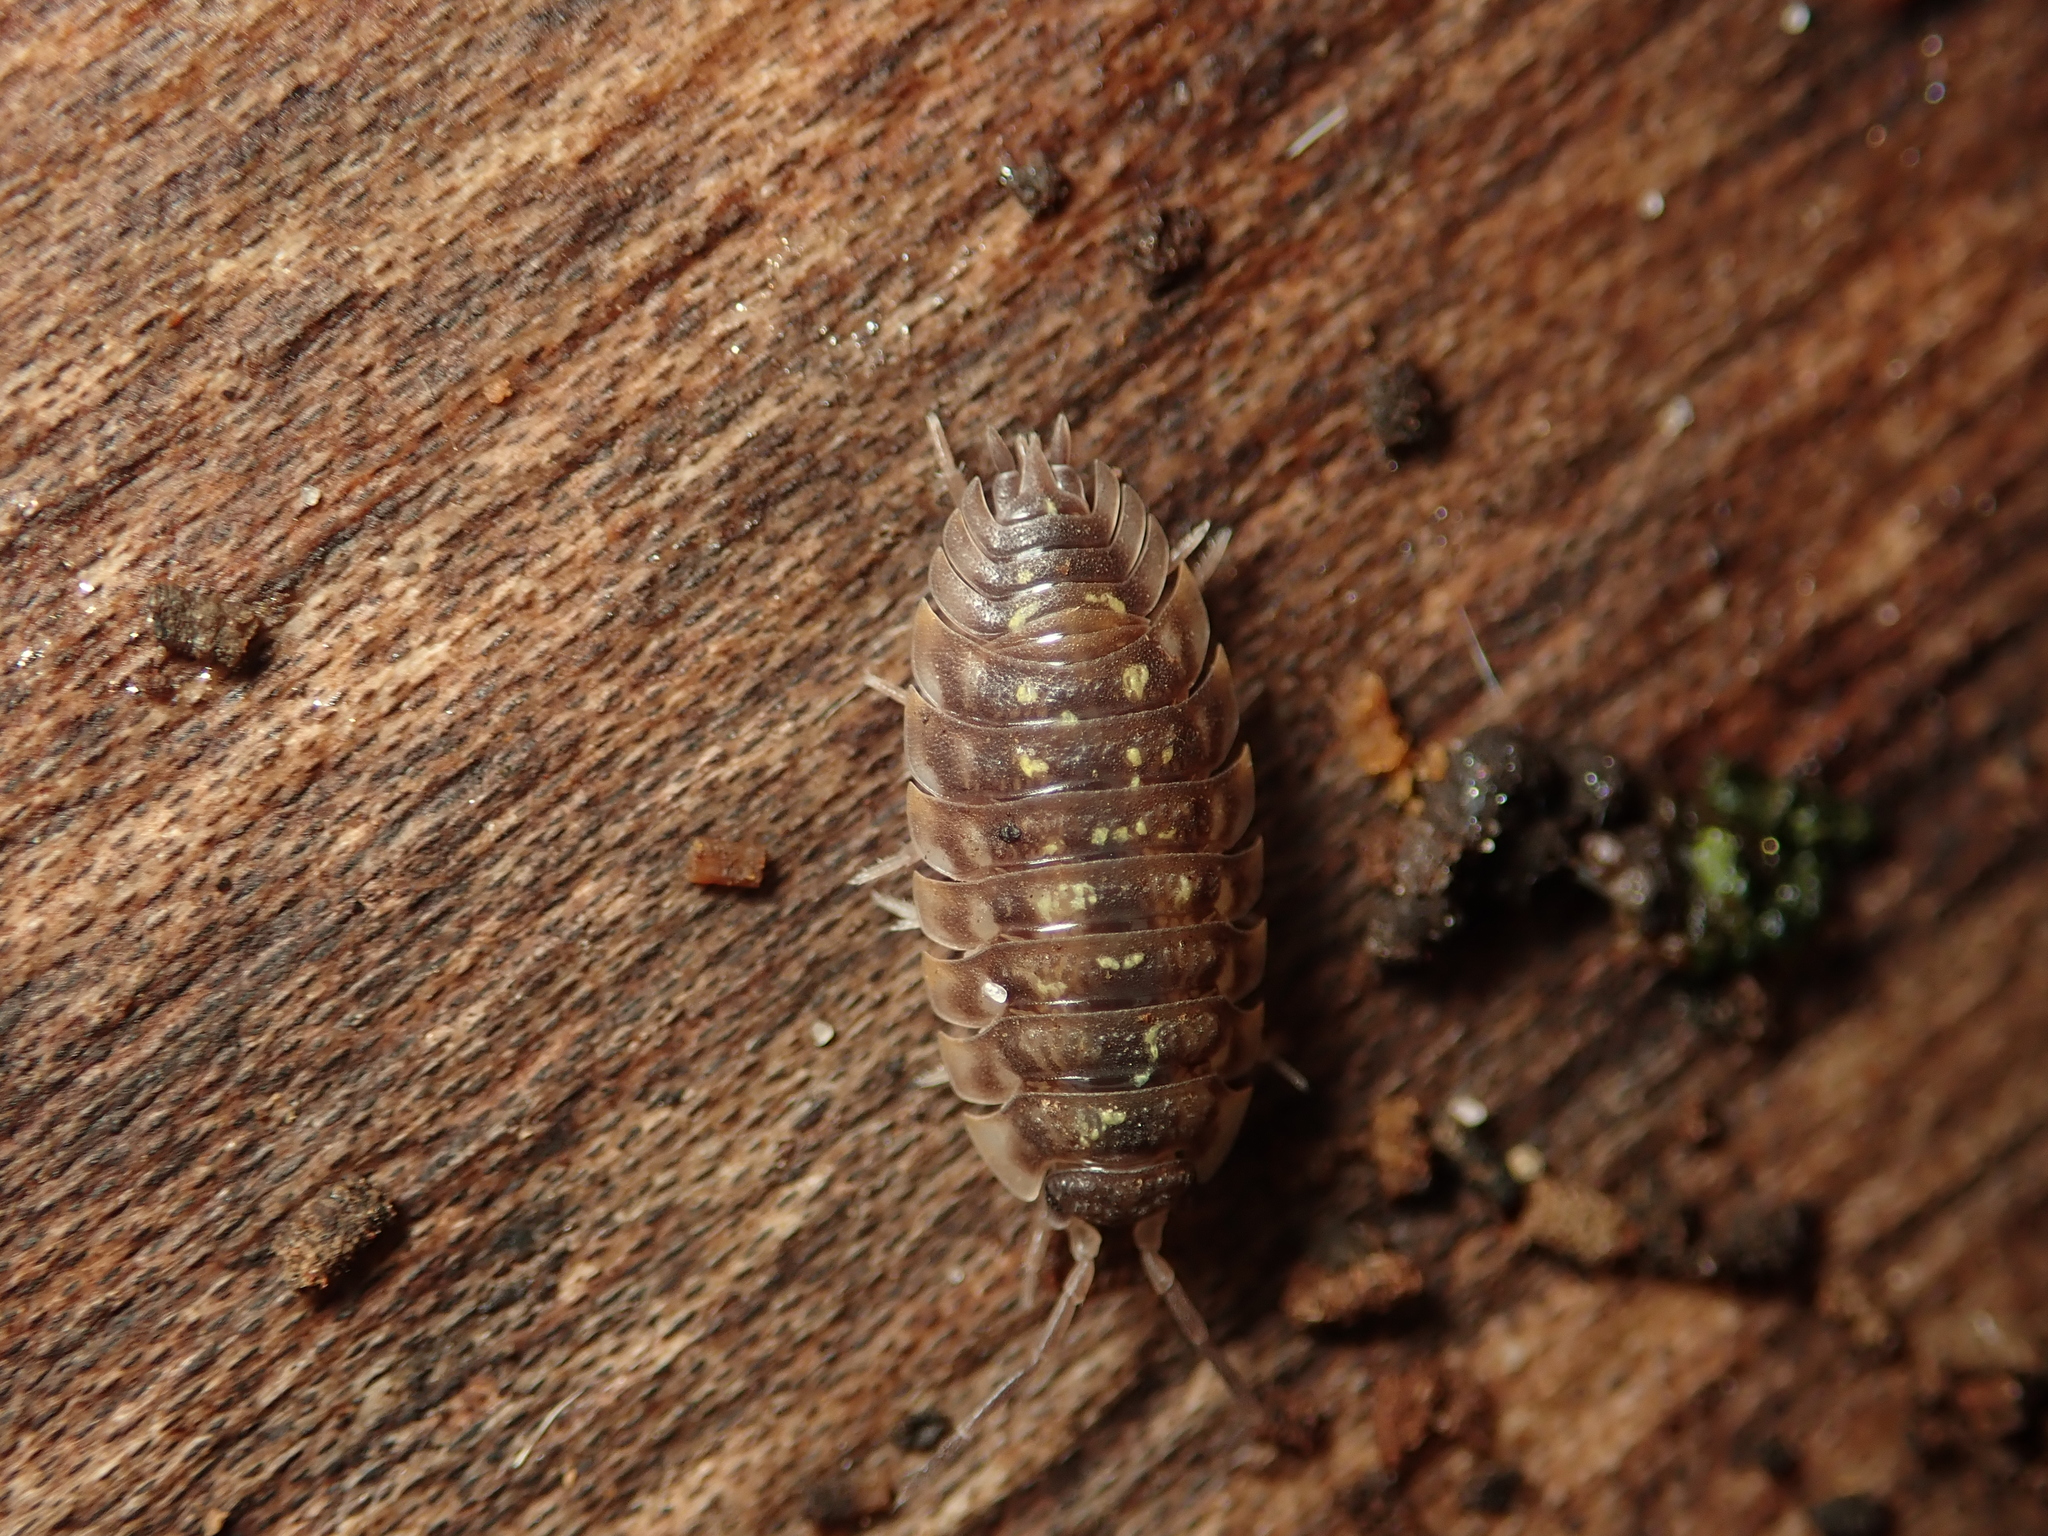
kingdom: Animalia
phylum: Arthropoda
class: Malacostraca
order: Isopoda
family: Oniscidae
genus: Oniscus
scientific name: Oniscus asellus
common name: Common shiny woodlouse
